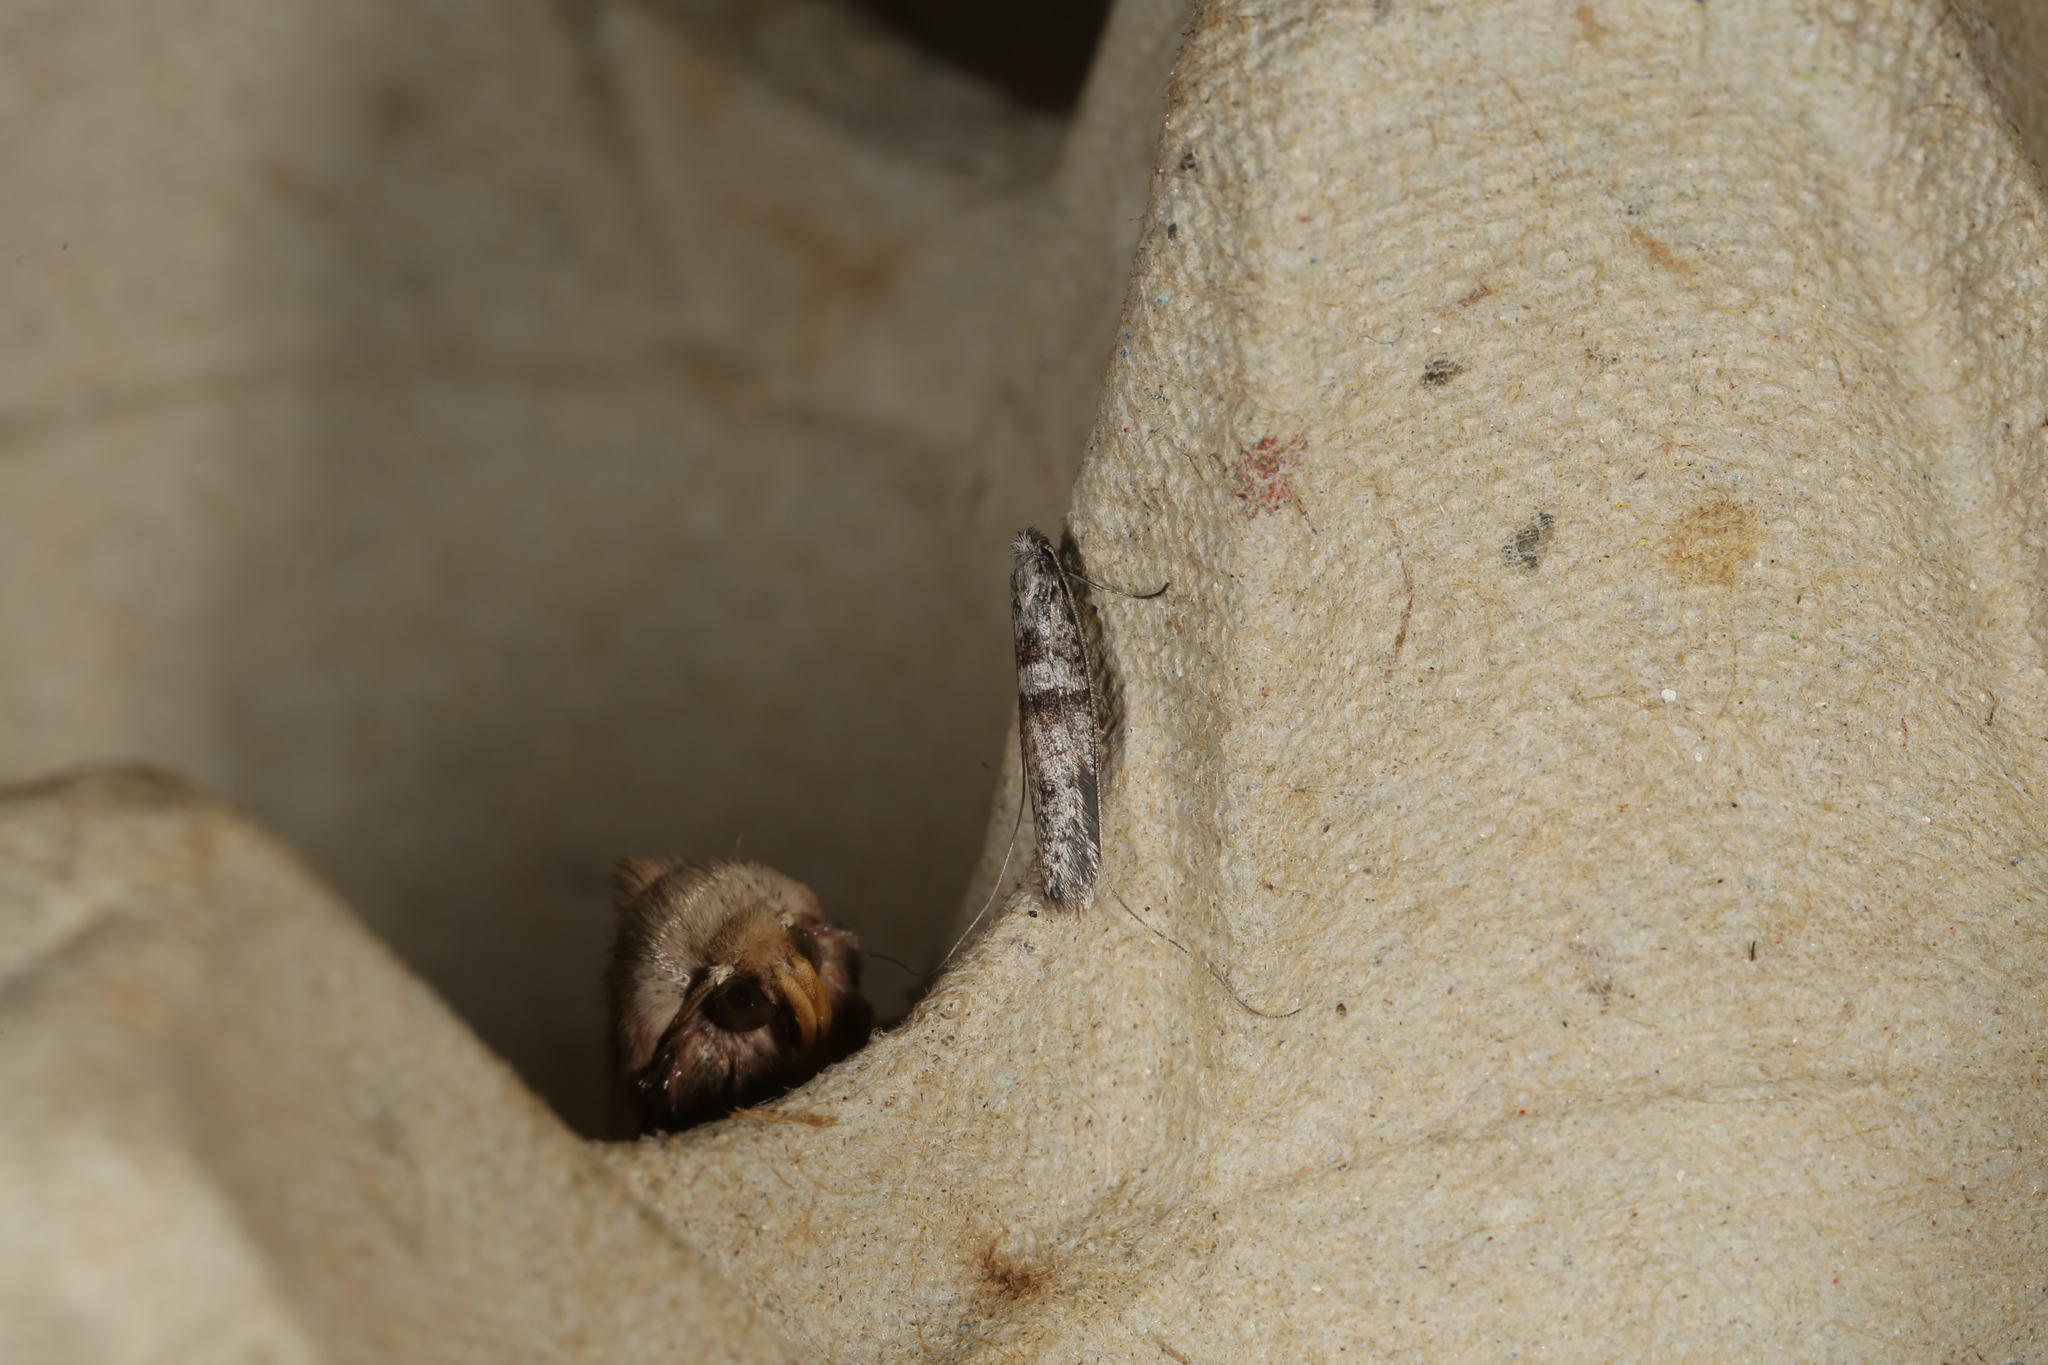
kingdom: Animalia
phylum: Arthropoda
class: Insecta
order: Lepidoptera
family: Adelidae
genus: Ceromitia
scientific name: Ceromitia iolampra
